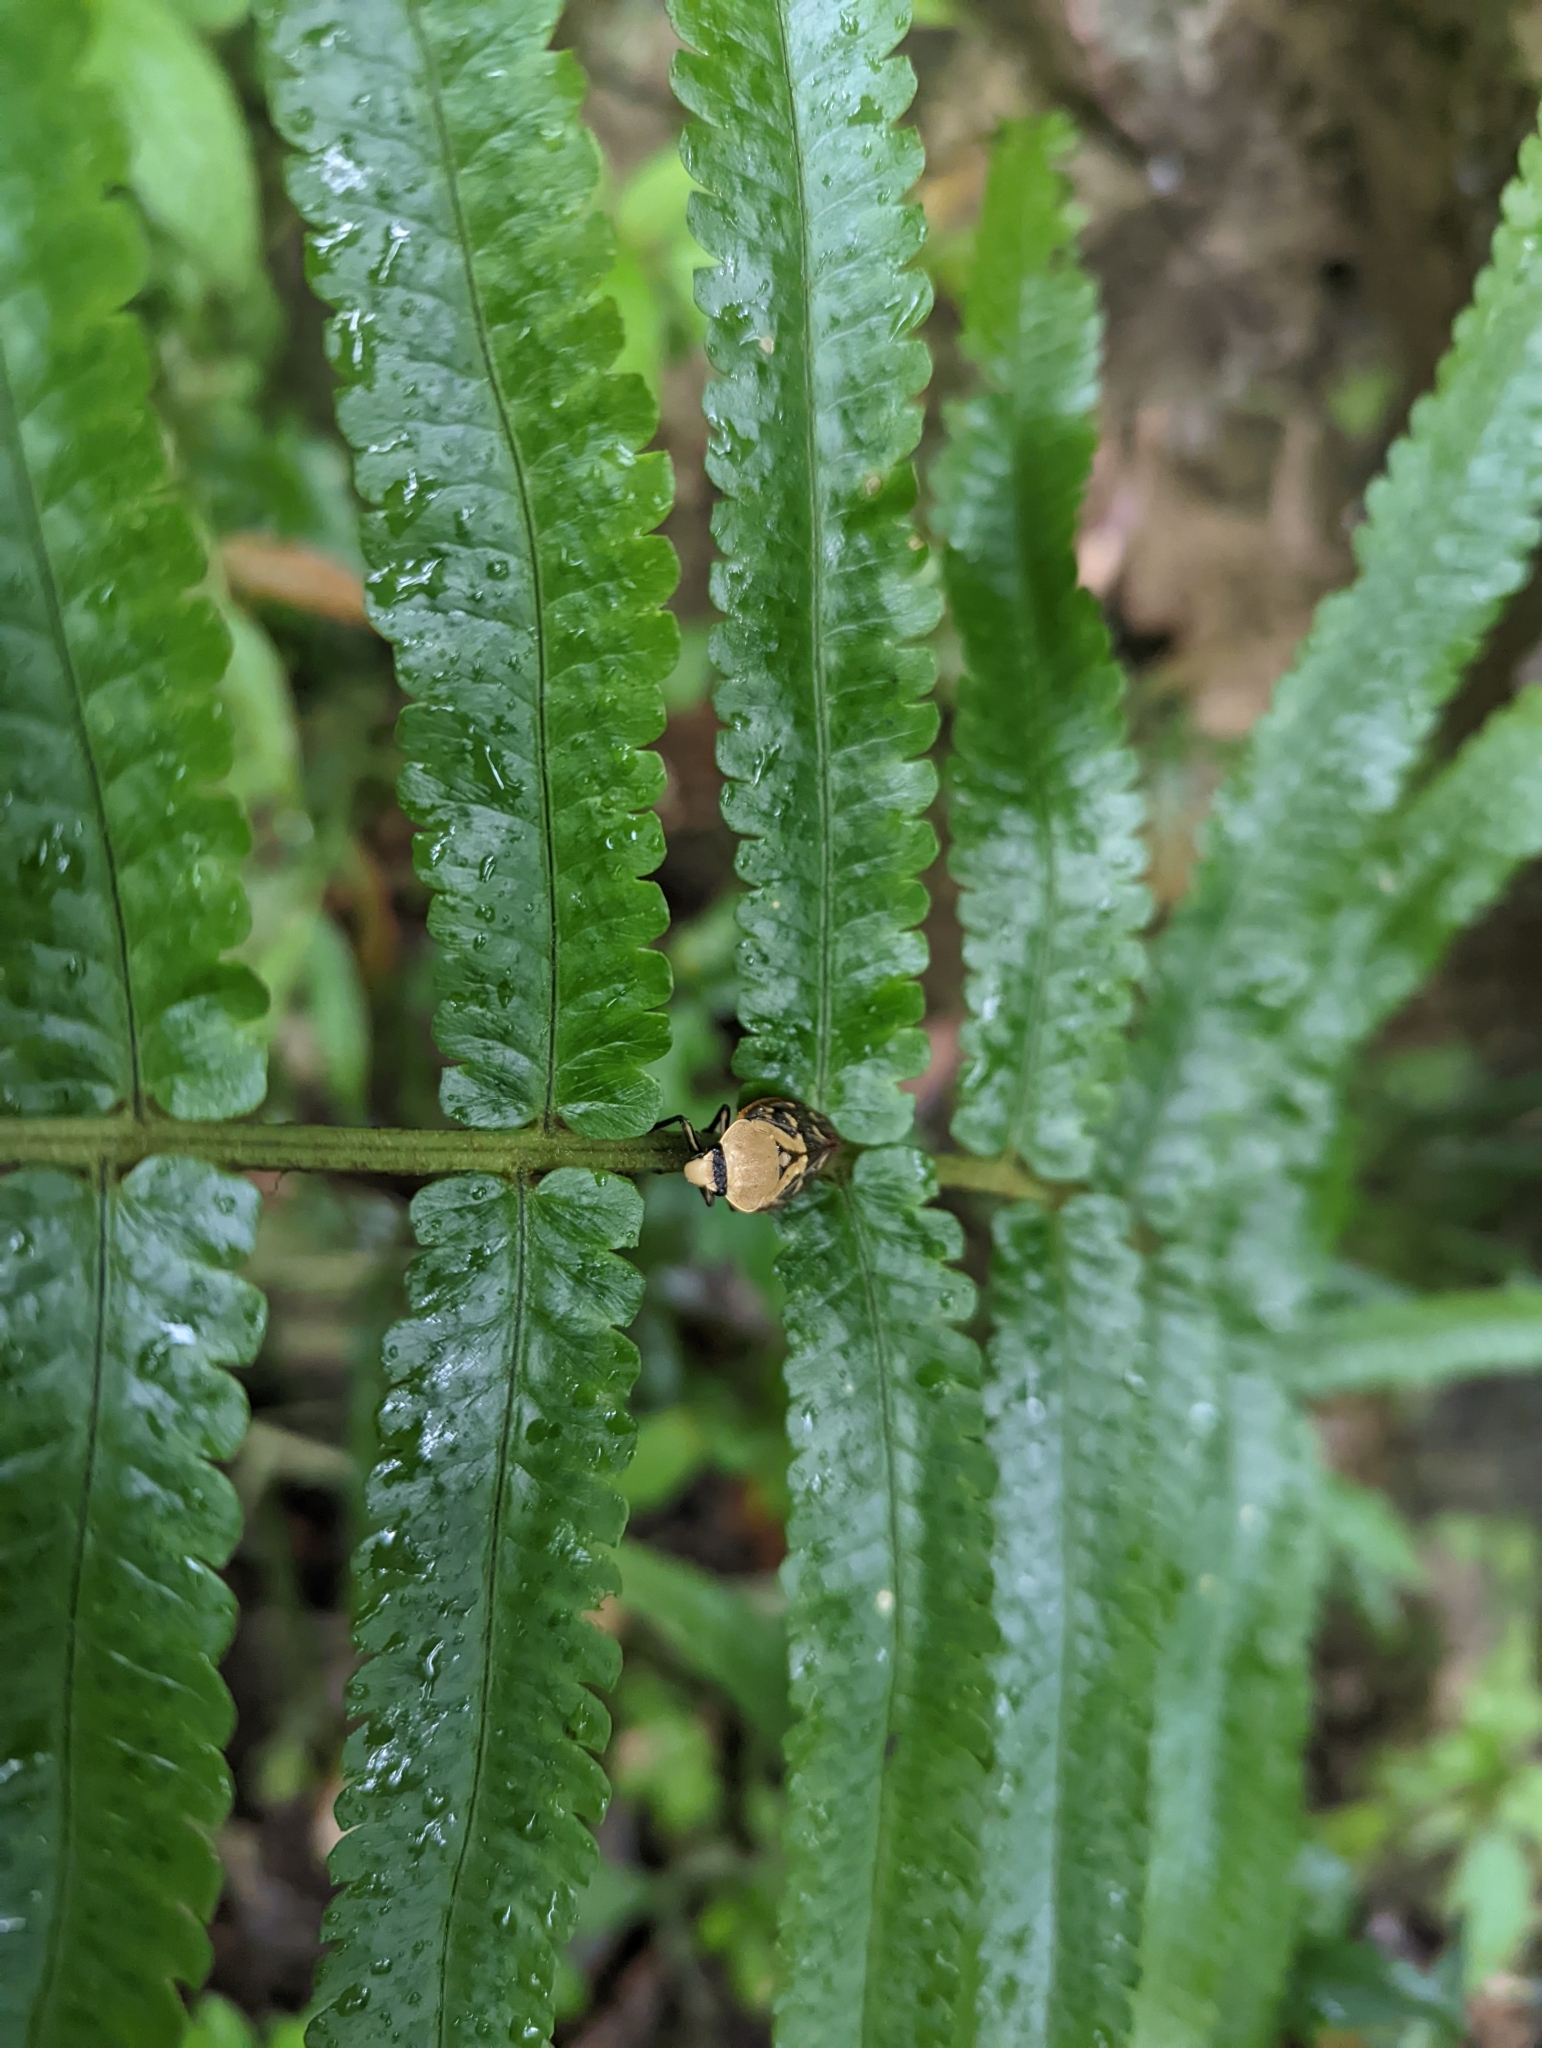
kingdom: Animalia
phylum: Arthropoda
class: Insecta
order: Hemiptera
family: Cercopidae
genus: Phymatostetha
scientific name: Phymatostetha rufolimbata
